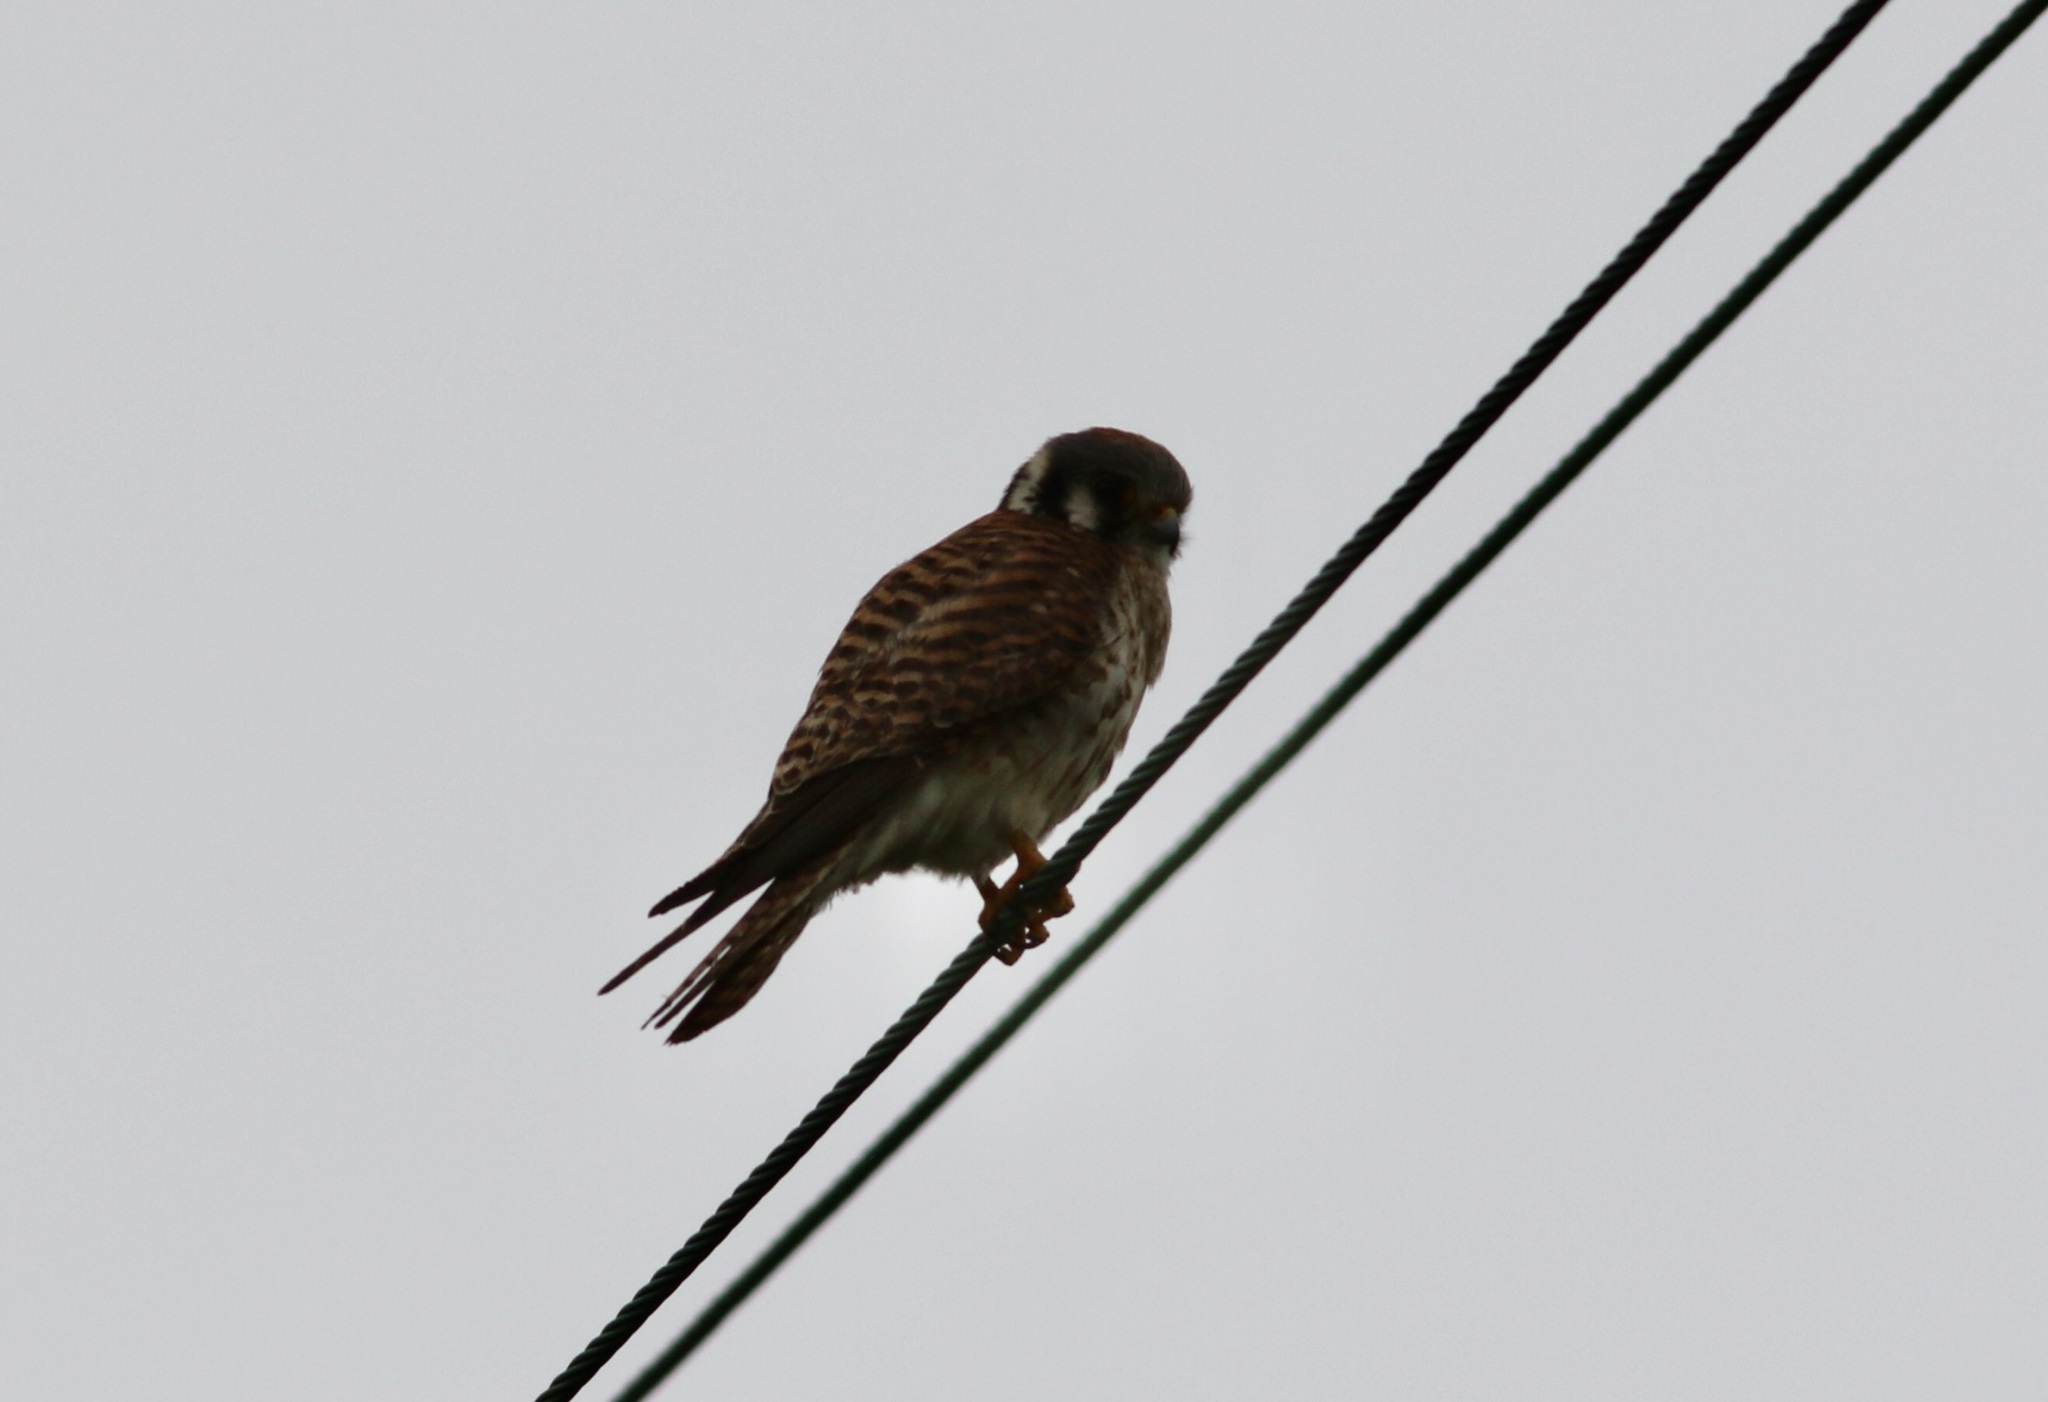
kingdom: Animalia
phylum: Chordata
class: Aves
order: Falconiformes
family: Falconidae
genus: Falco
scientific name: Falco sparverius
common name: American kestrel
